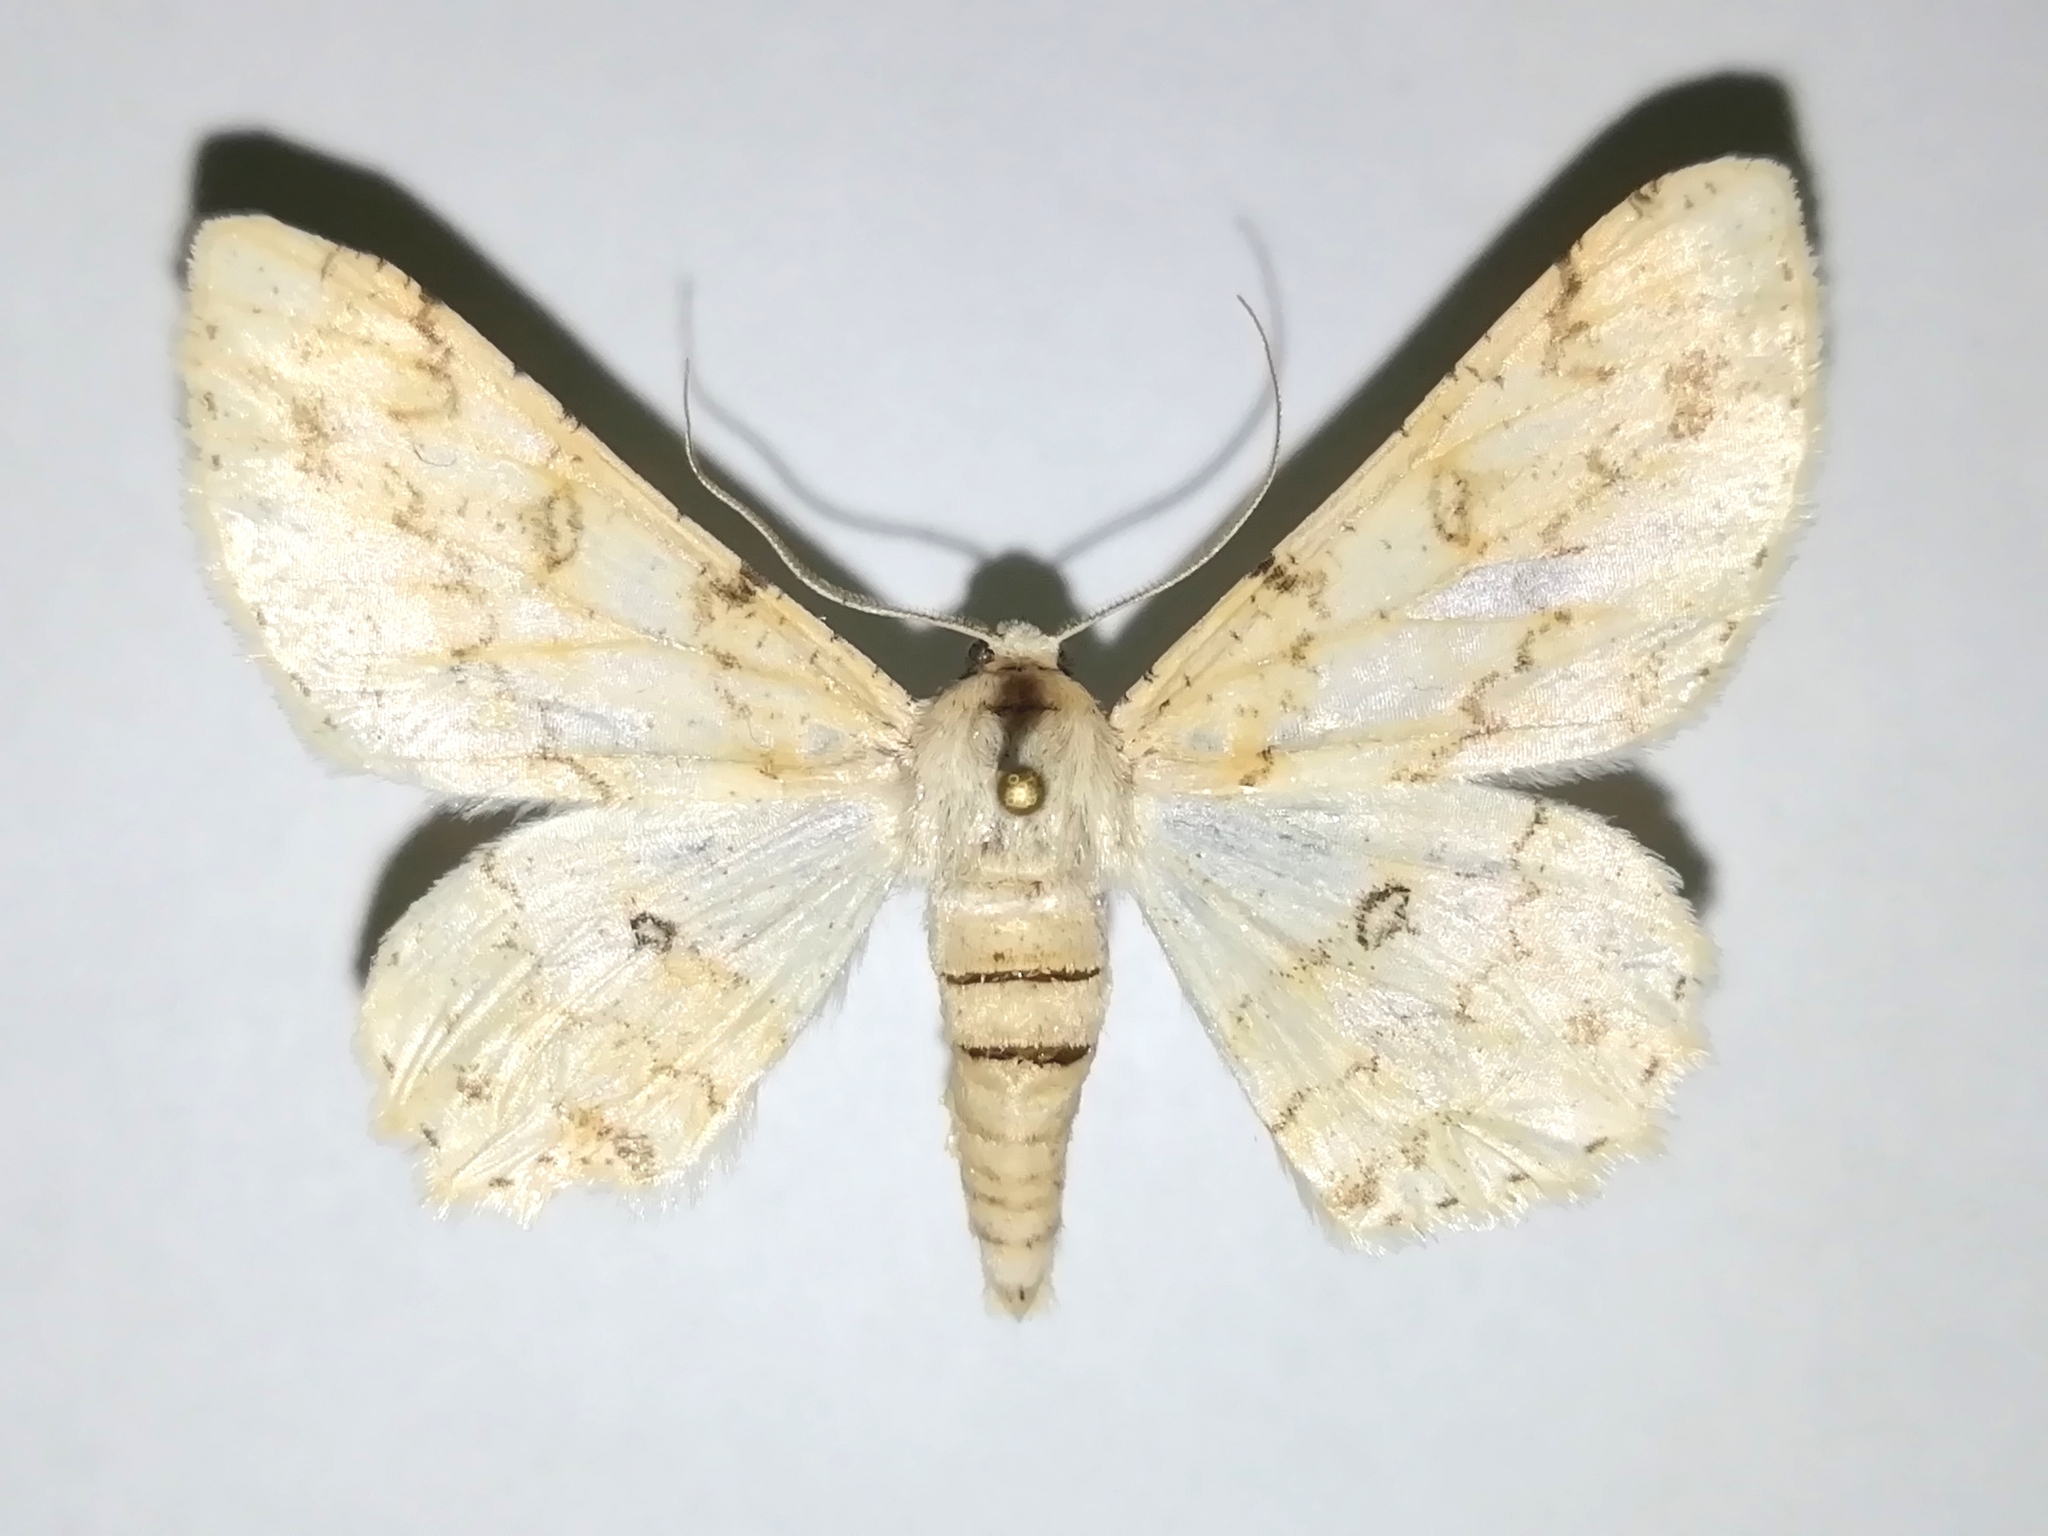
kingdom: Animalia
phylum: Arthropoda
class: Insecta
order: Lepidoptera
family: Geometridae
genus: Ascotis
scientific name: Ascotis selenaria
